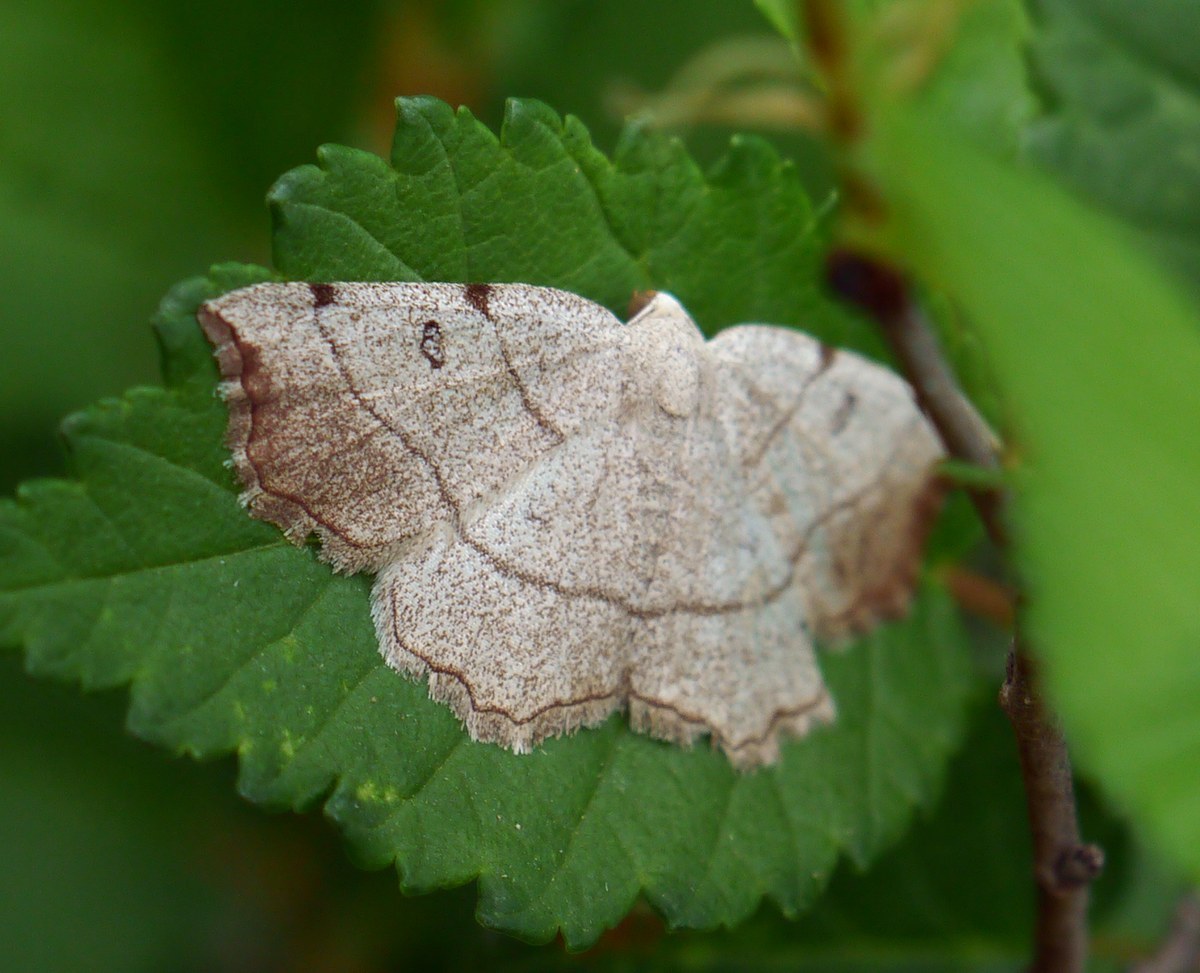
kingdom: Animalia
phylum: Arthropoda
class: Insecta
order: Lepidoptera
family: Geometridae
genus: Eilicrinia
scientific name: Eilicrinia trinotata
